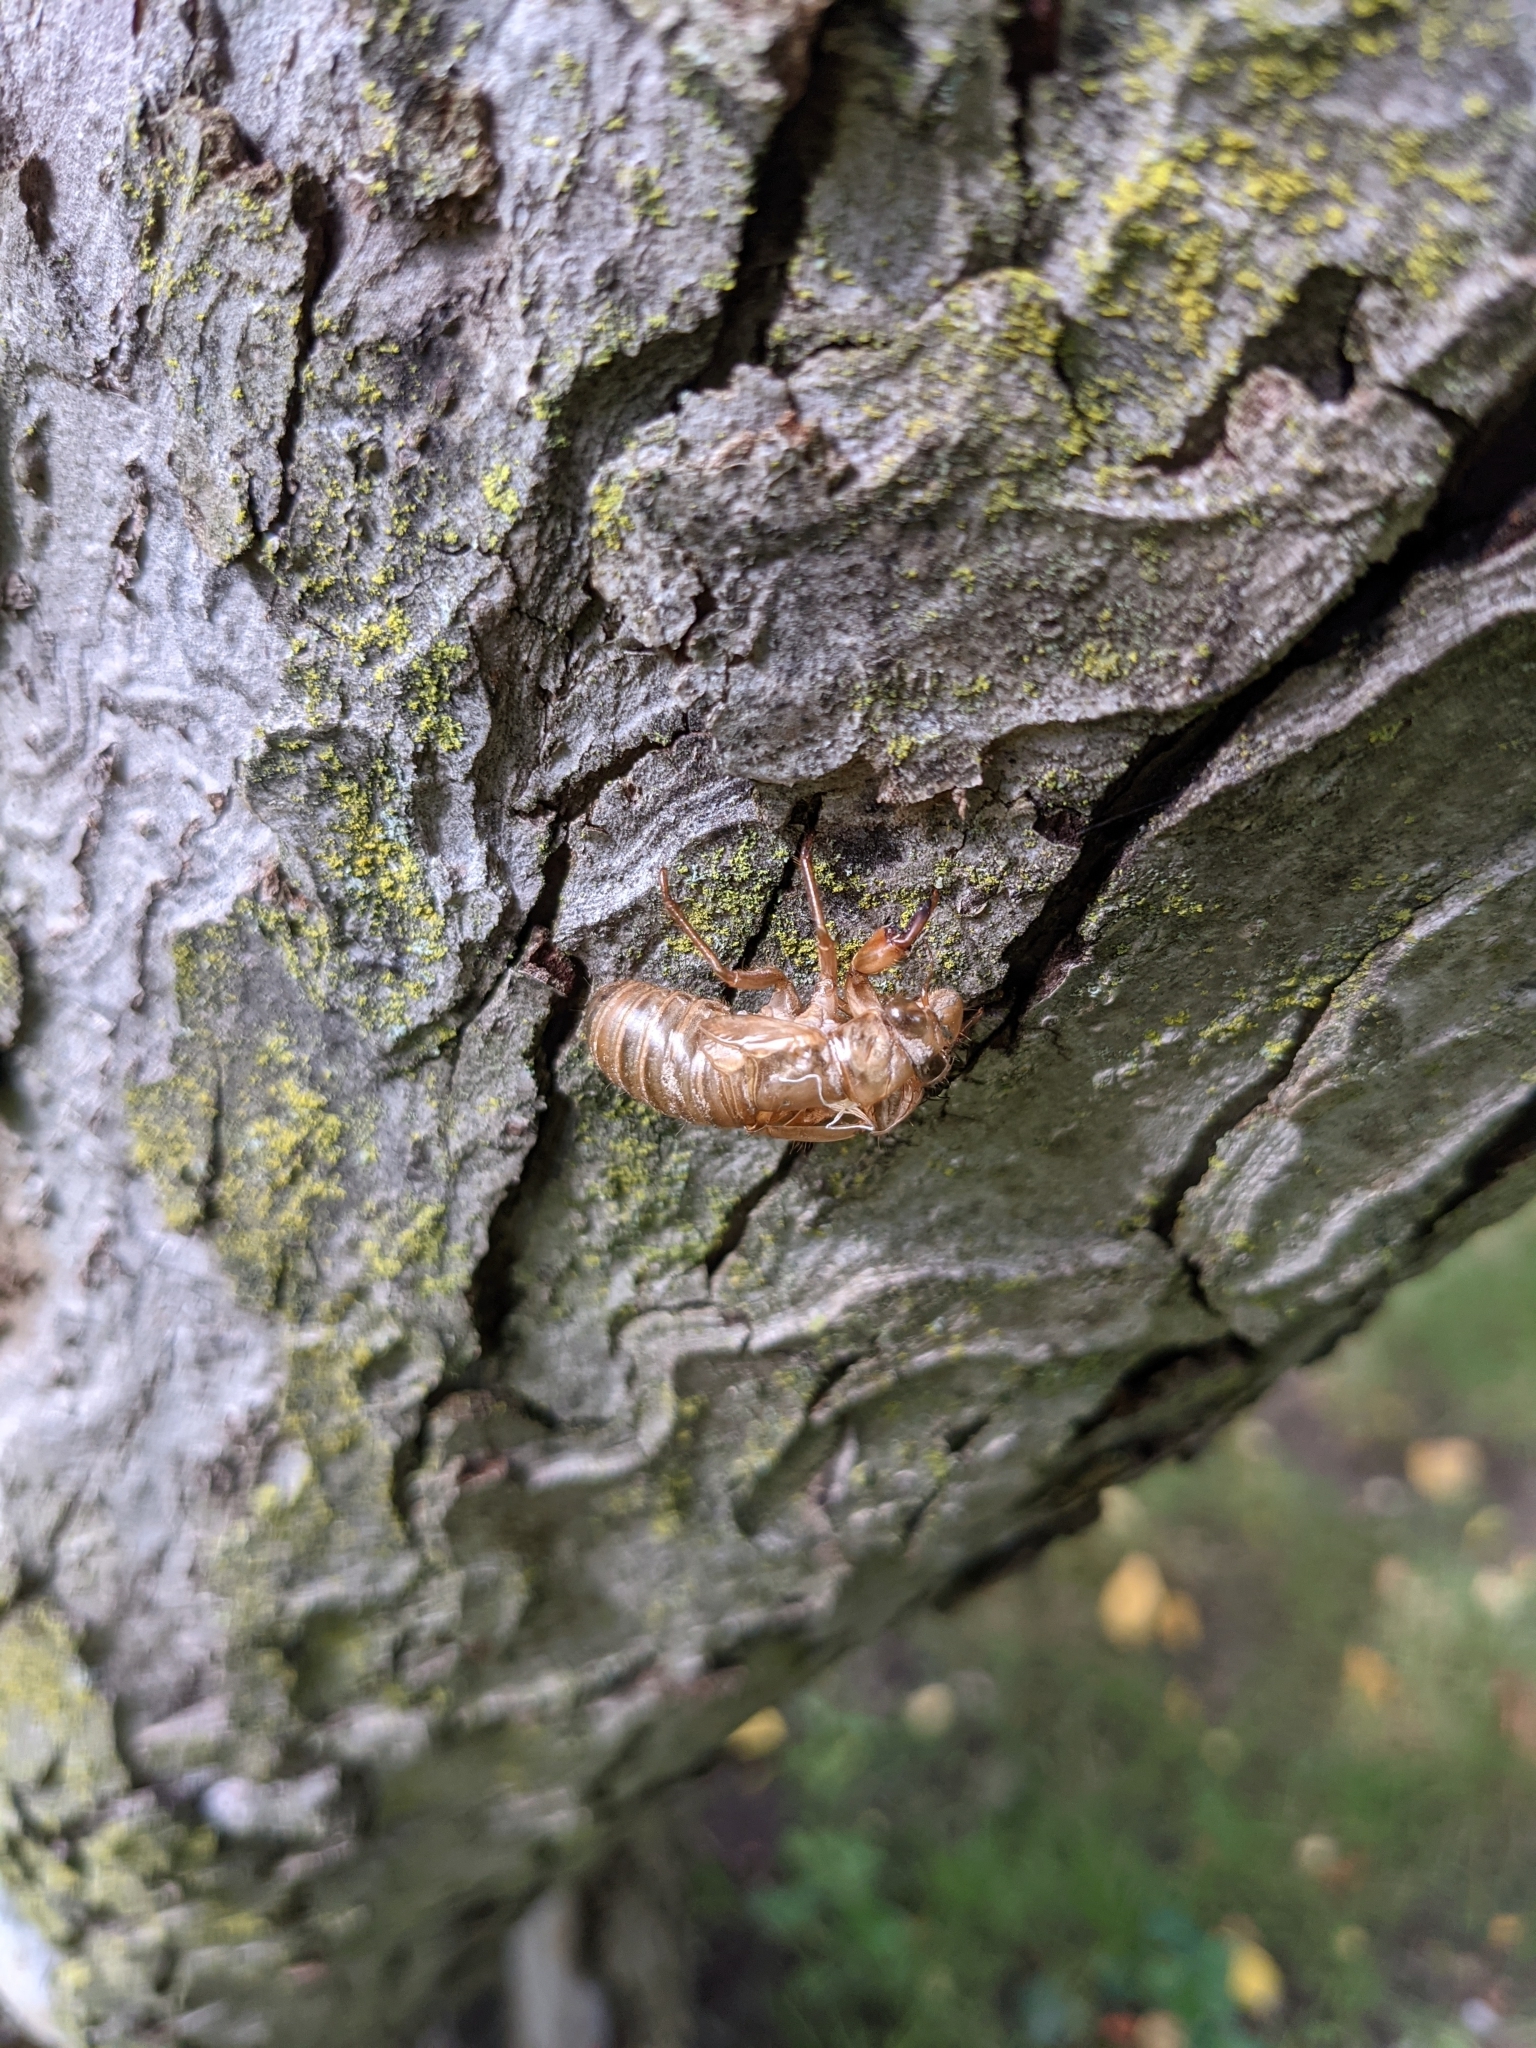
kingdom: Animalia
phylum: Arthropoda
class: Insecta
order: Hemiptera
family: Cicadidae
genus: Magicicada
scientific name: Magicicada
